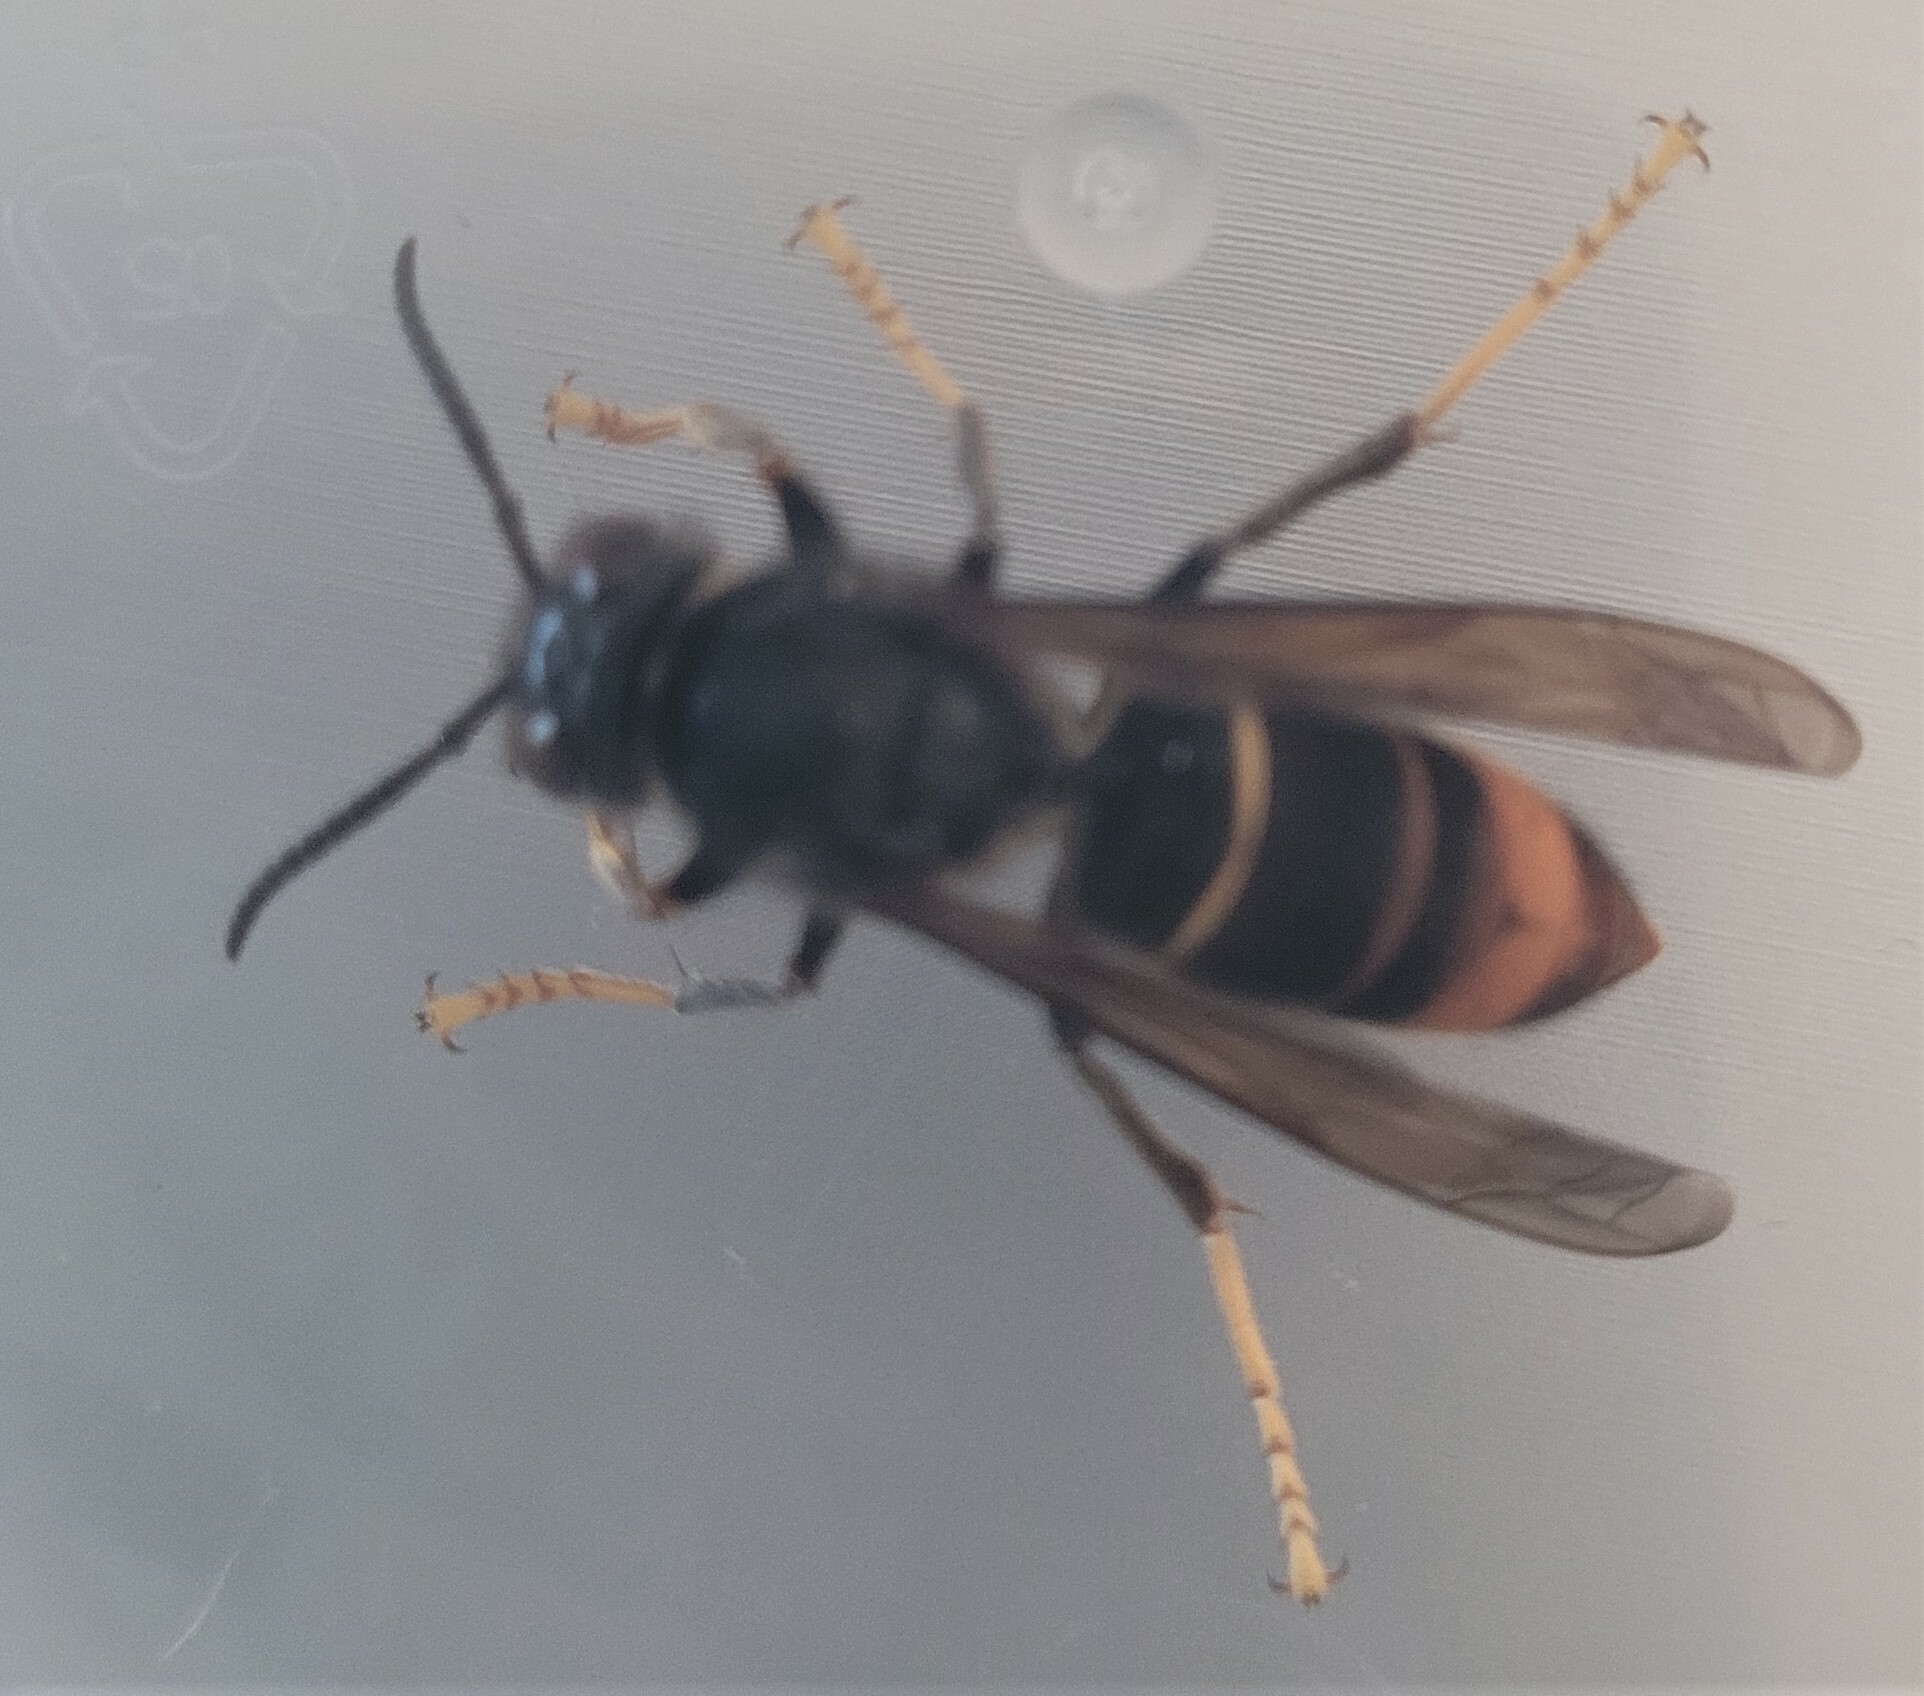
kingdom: Animalia
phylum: Arthropoda
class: Insecta
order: Hymenoptera
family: Vespidae
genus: Vespa
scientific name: Vespa velutina
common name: Asian hornet
